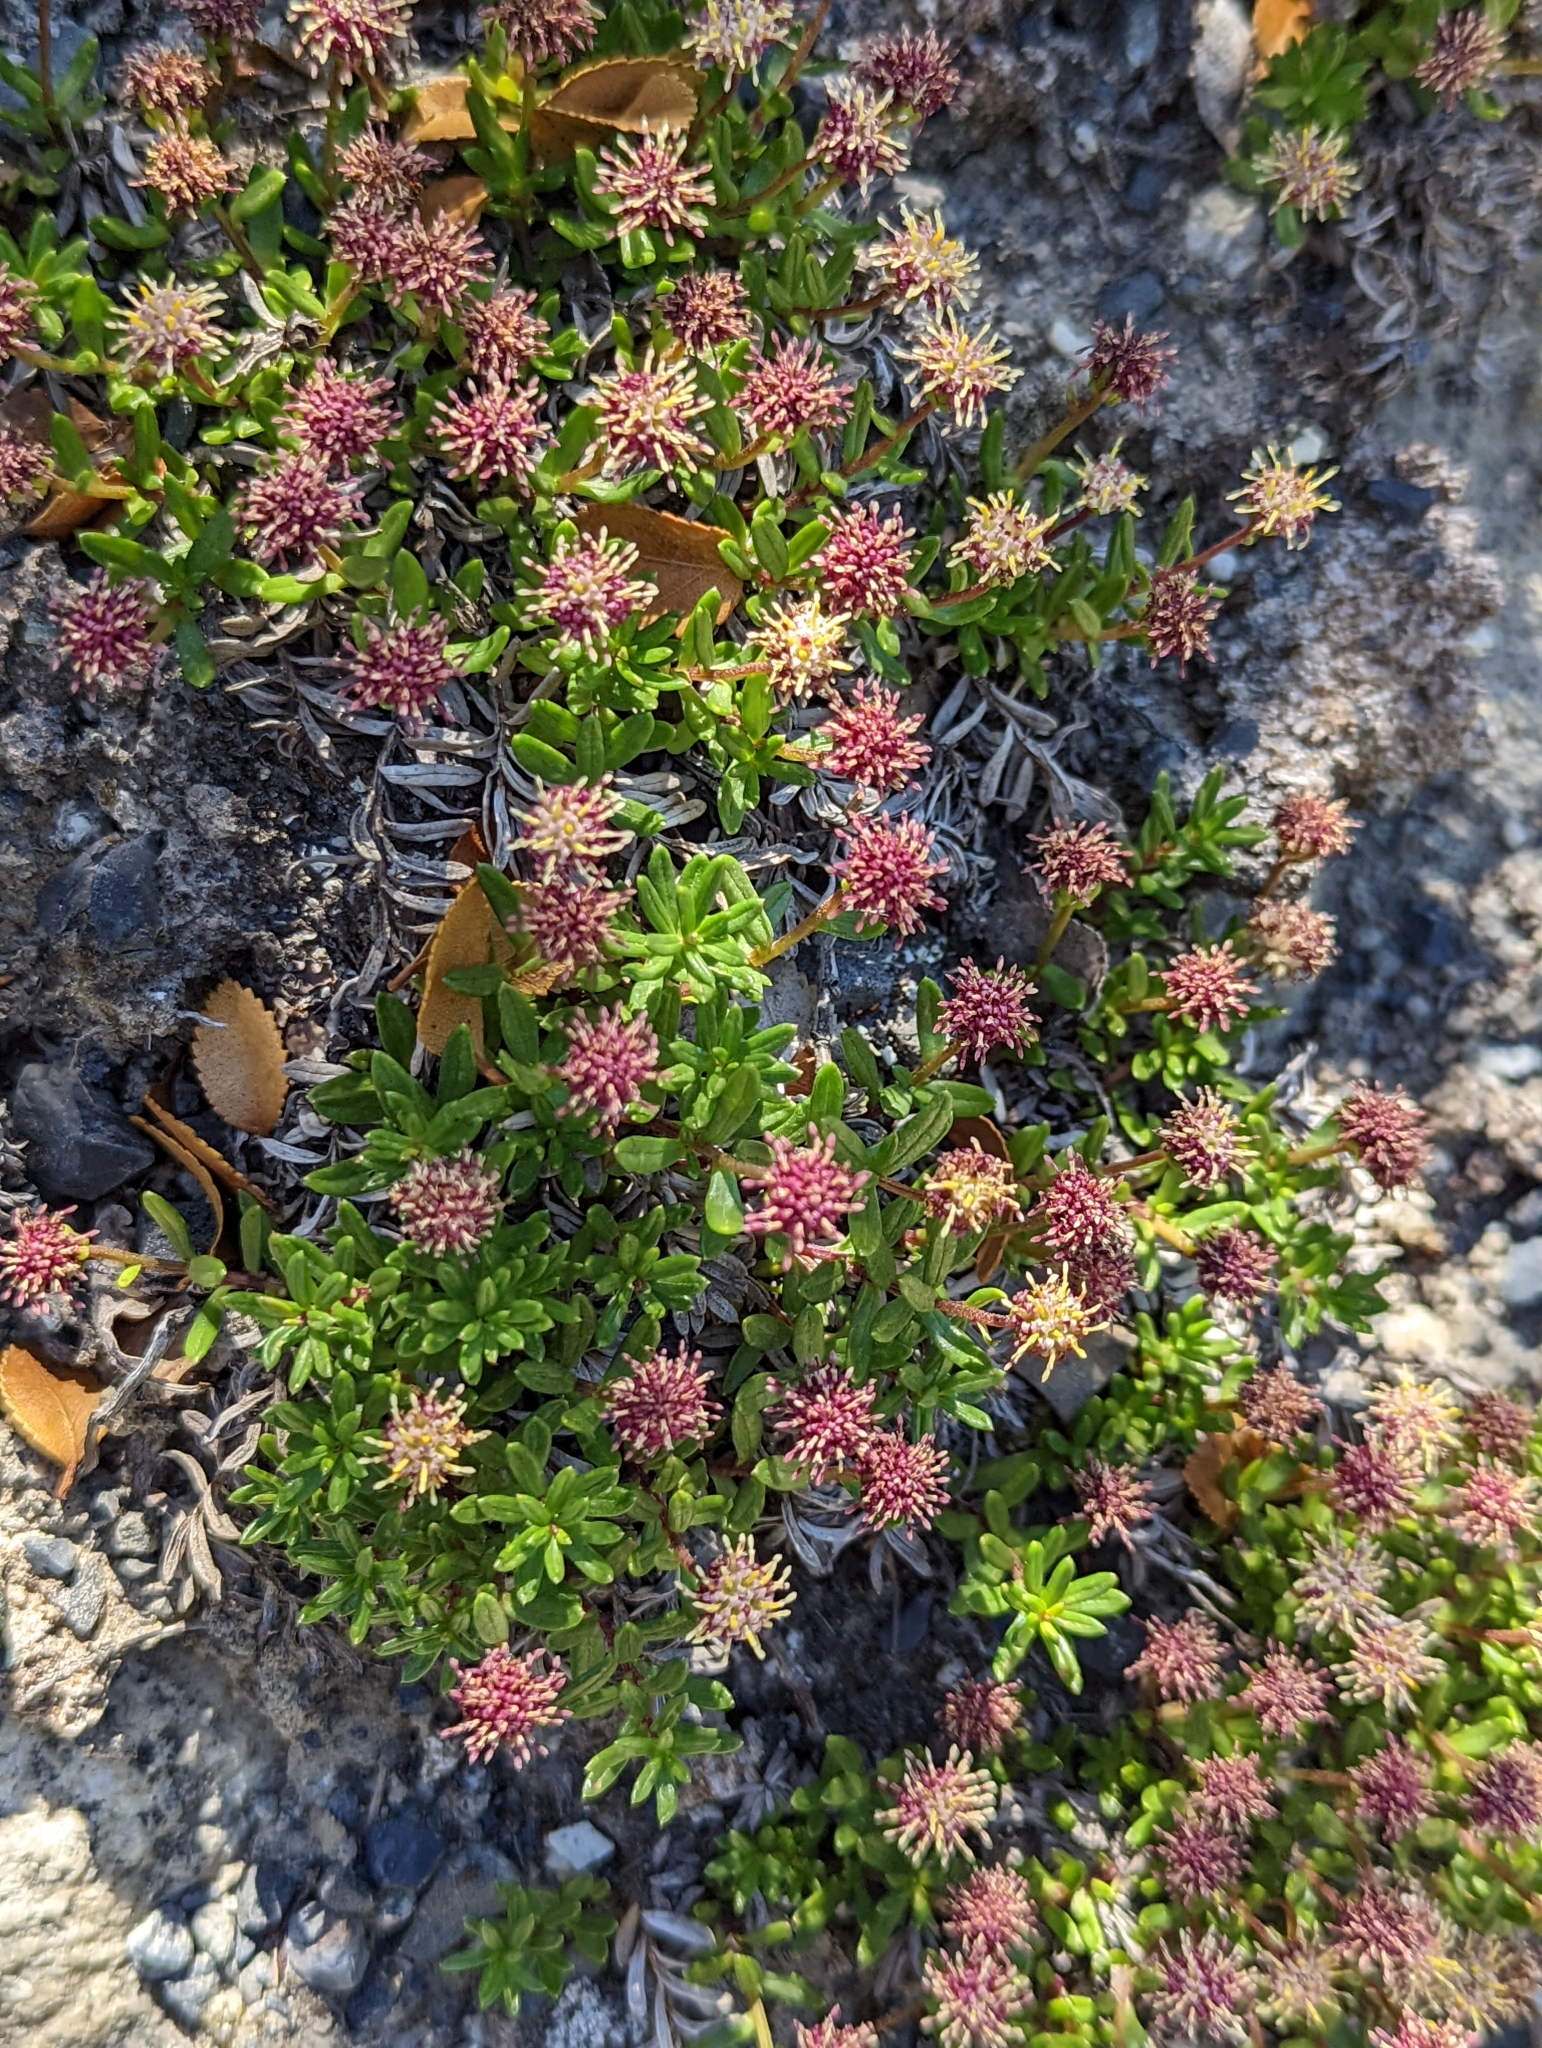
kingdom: Plantae
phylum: Tracheophyta
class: Magnoliopsida
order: Asterales
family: Asteraceae
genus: Baccharis
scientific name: Baccharis nivalis
